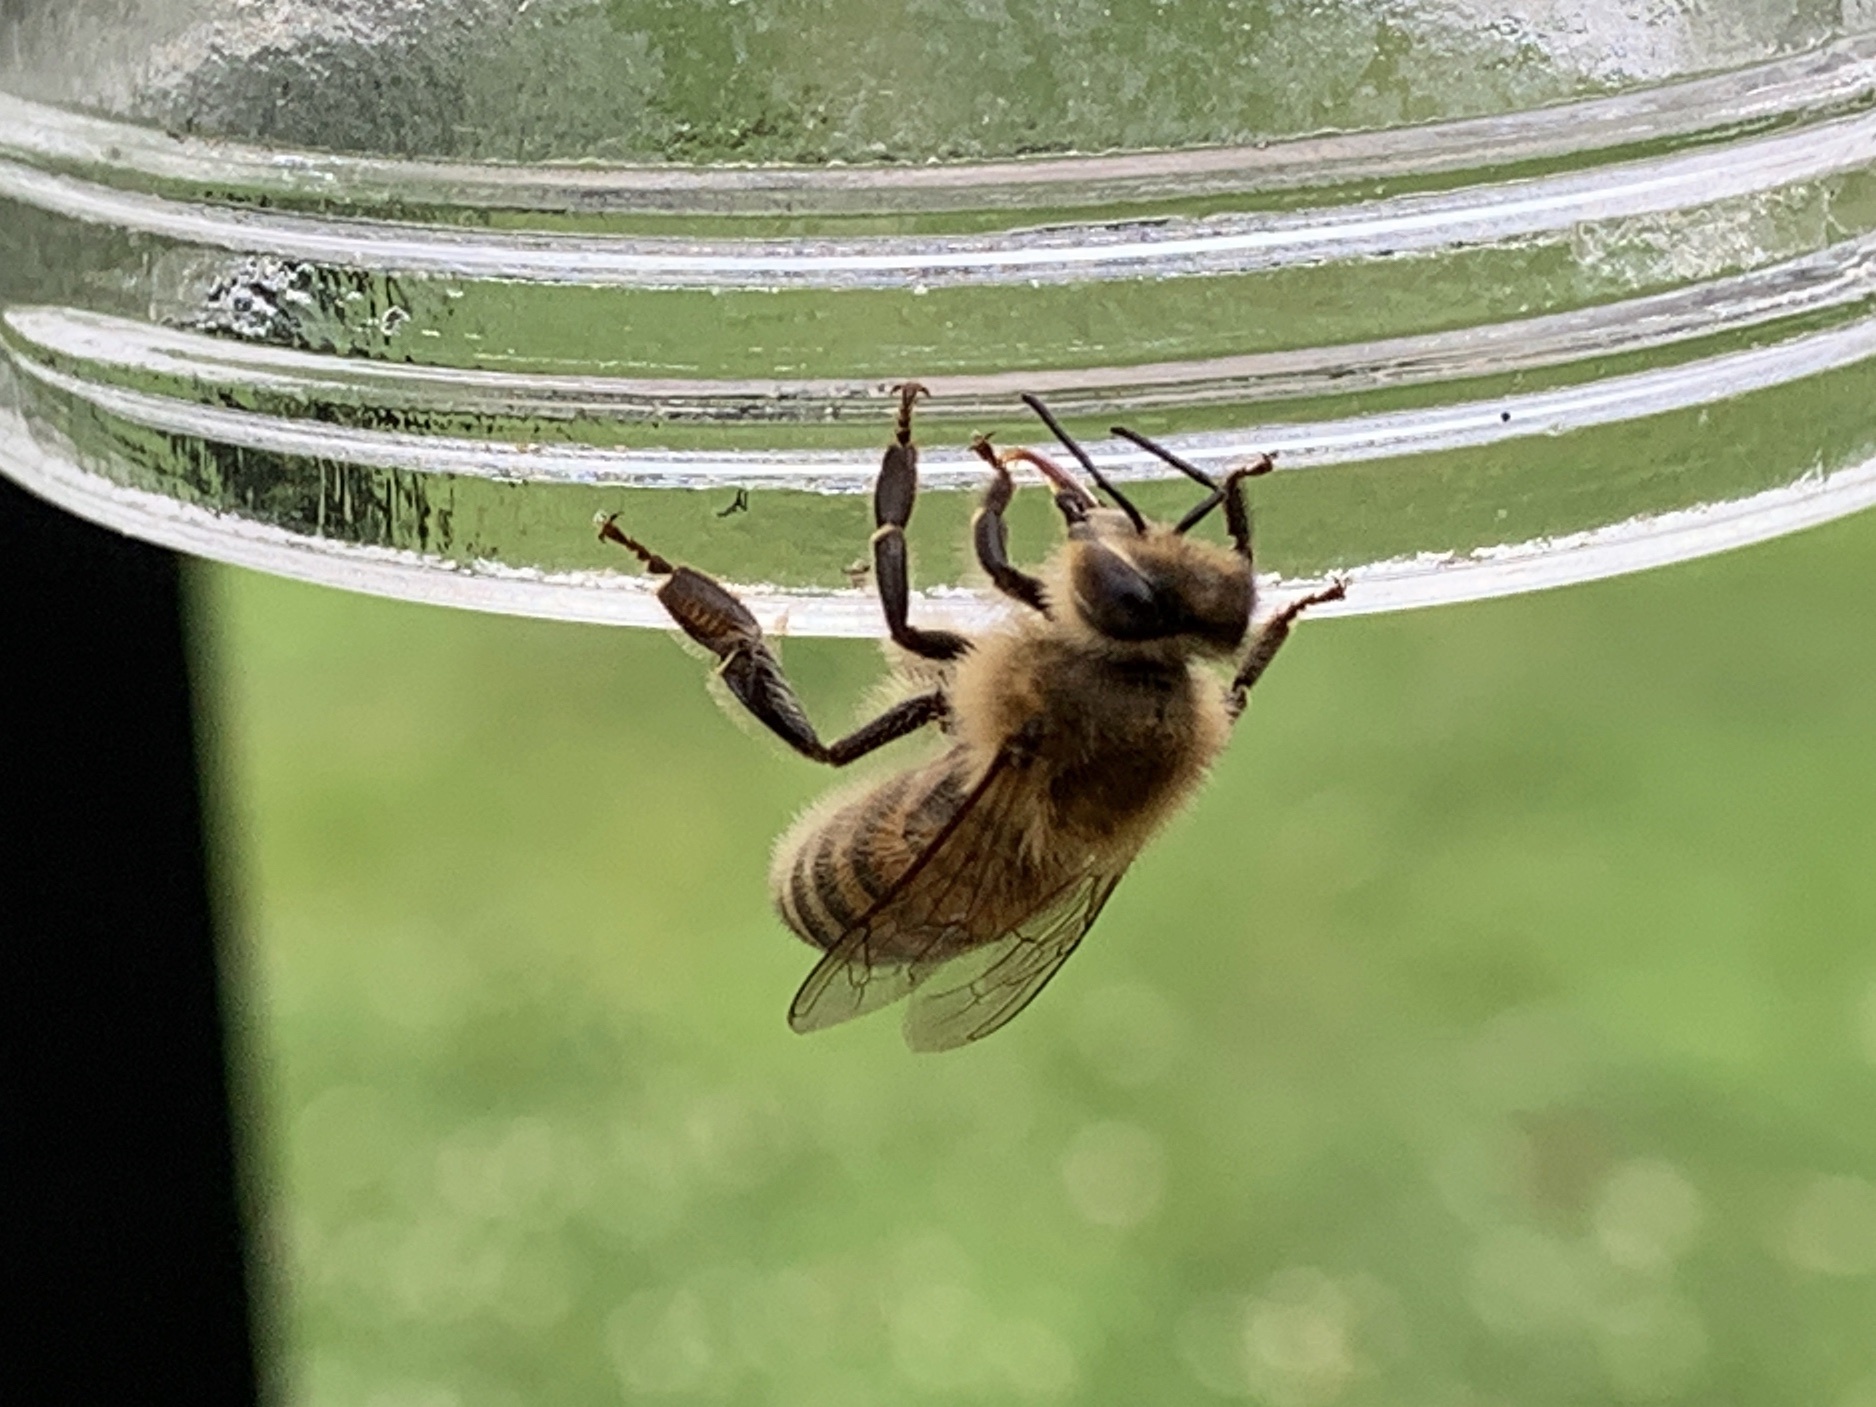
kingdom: Animalia
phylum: Arthropoda
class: Insecta
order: Hymenoptera
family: Apidae
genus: Apis
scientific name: Apis mellifera
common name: Honey bee
